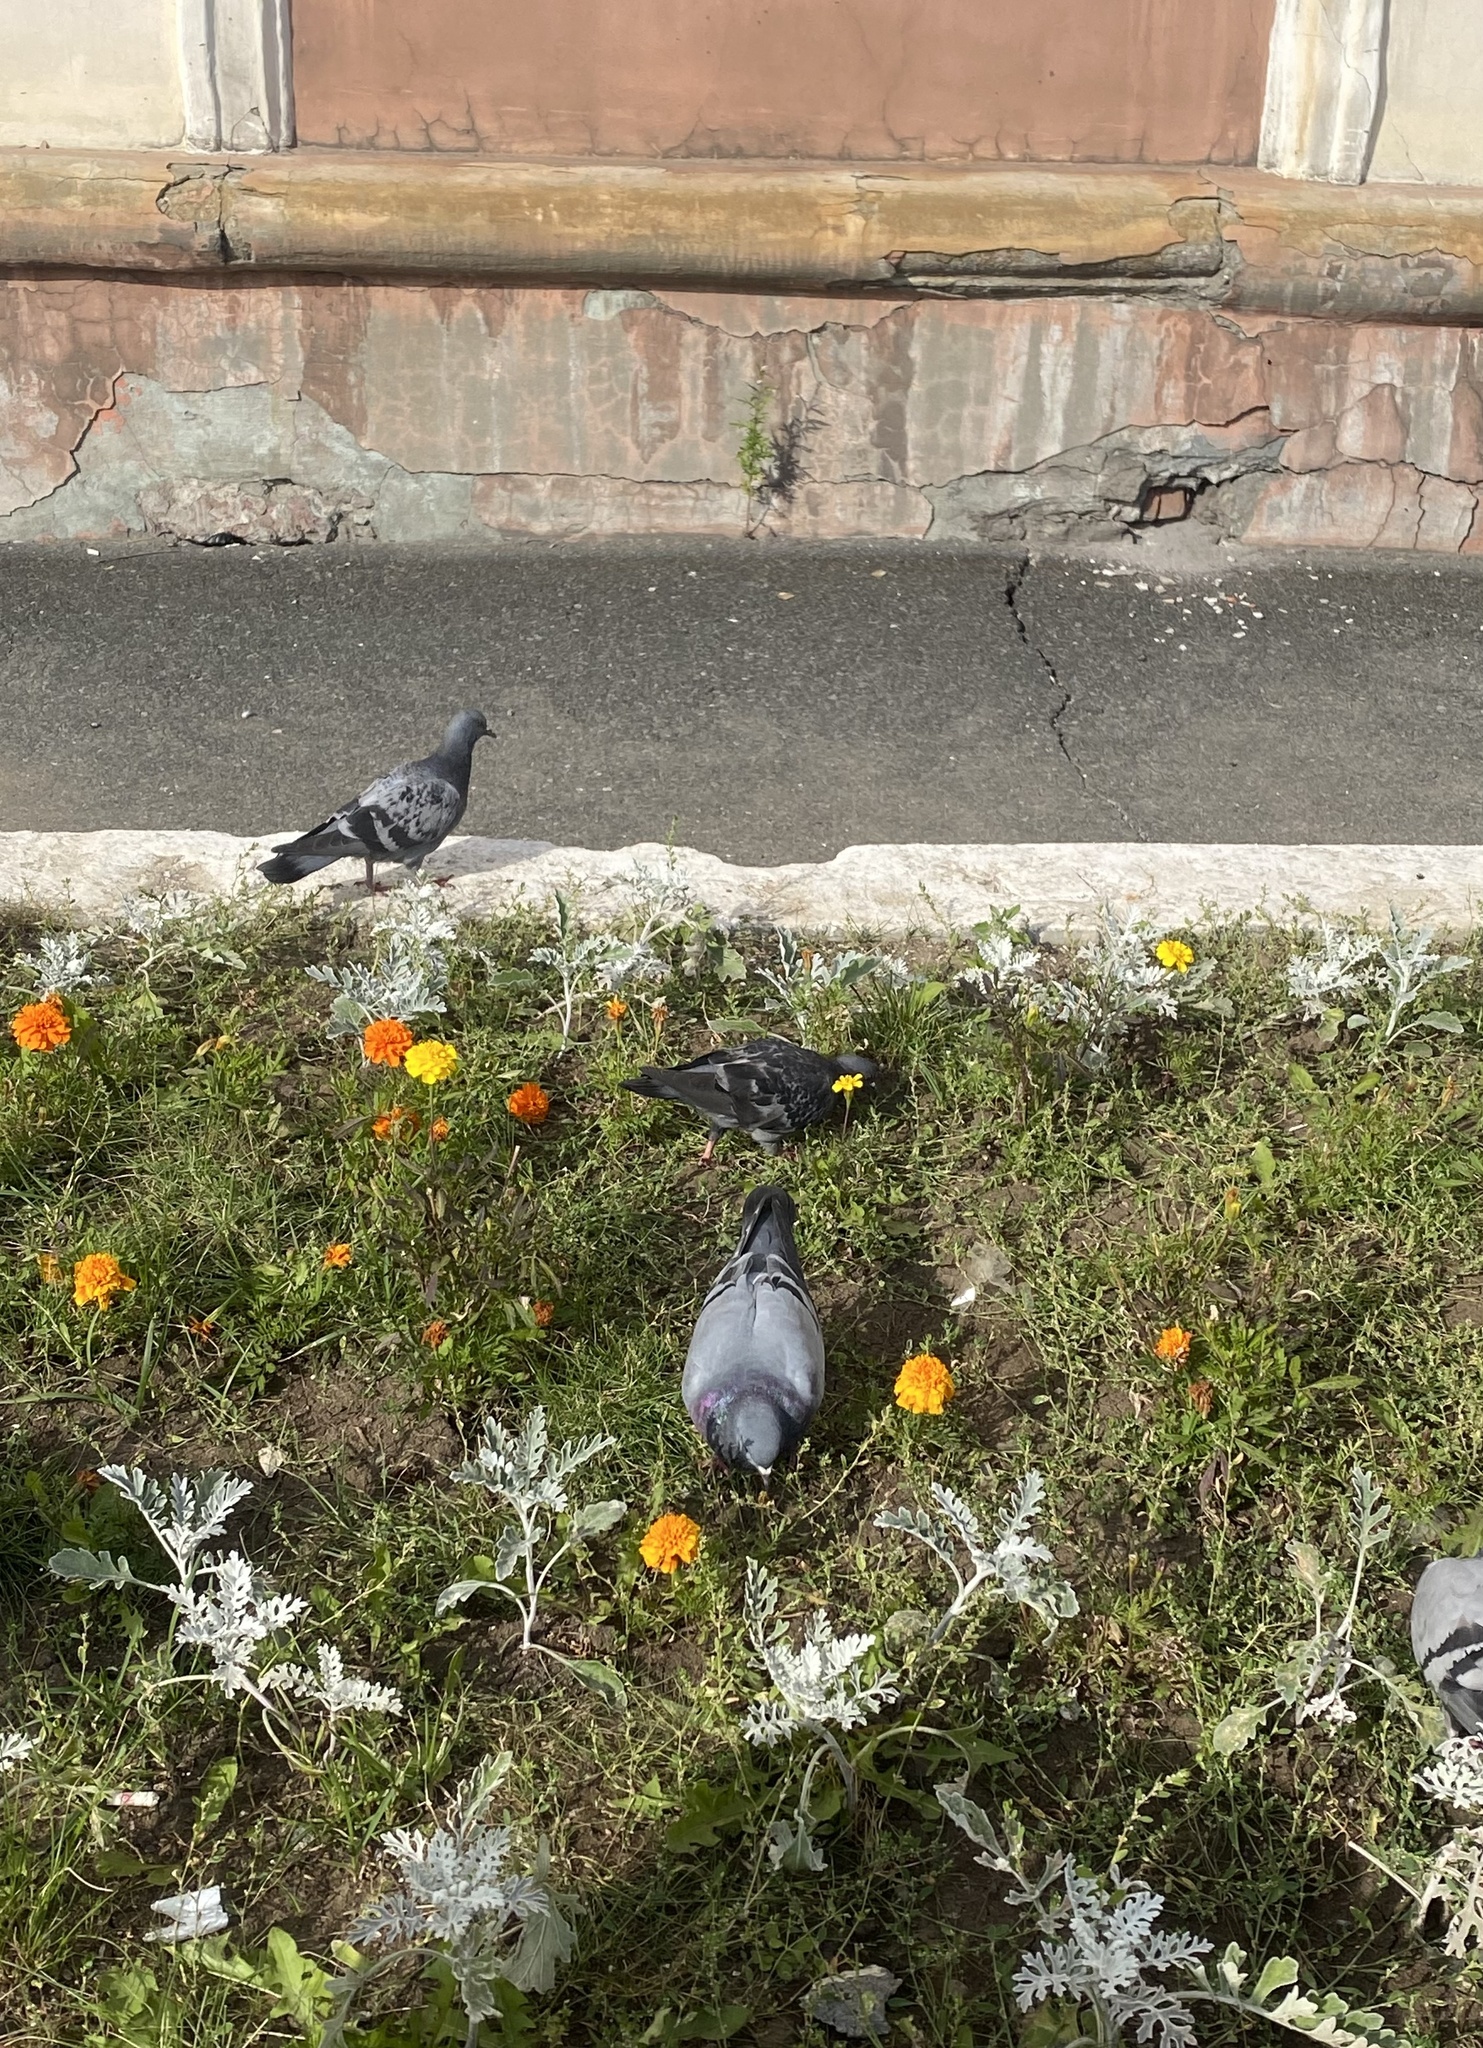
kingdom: Animalia
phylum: Chordata
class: Aves
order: Columbiformes
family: Columbidae
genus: Columba
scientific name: Columba livia
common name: Rock pigeon
